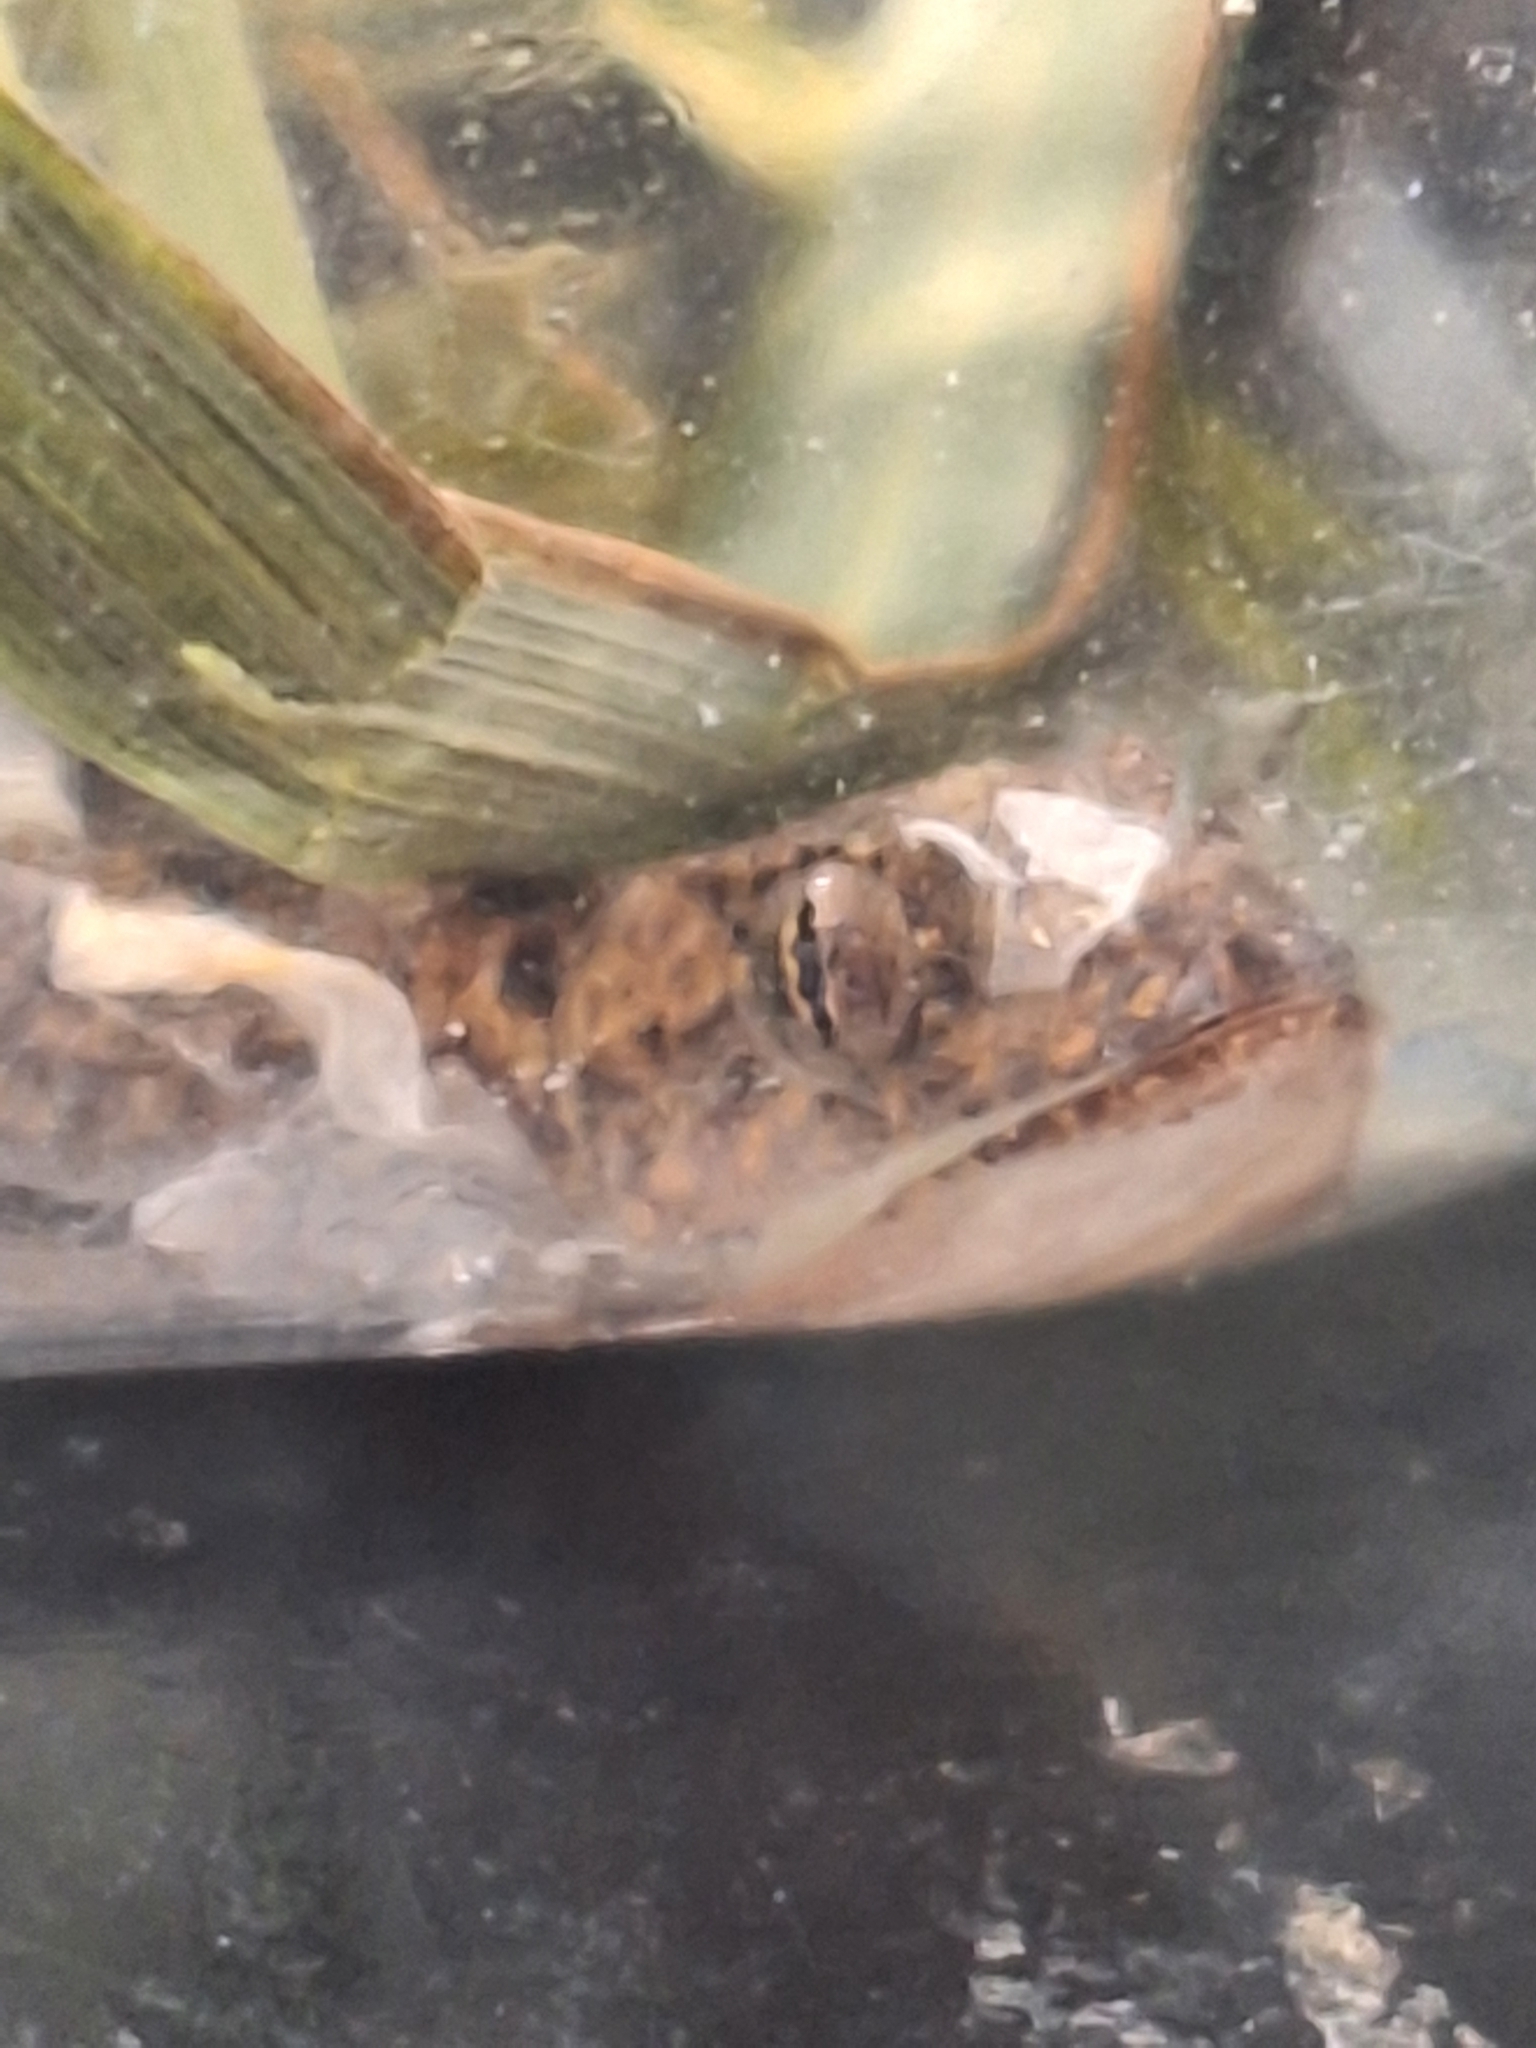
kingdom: Animalia
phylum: Chordata
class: Squamata
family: Gekkonidae
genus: Hemidactylus
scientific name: Hemidactylus mabouia
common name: House gecko
